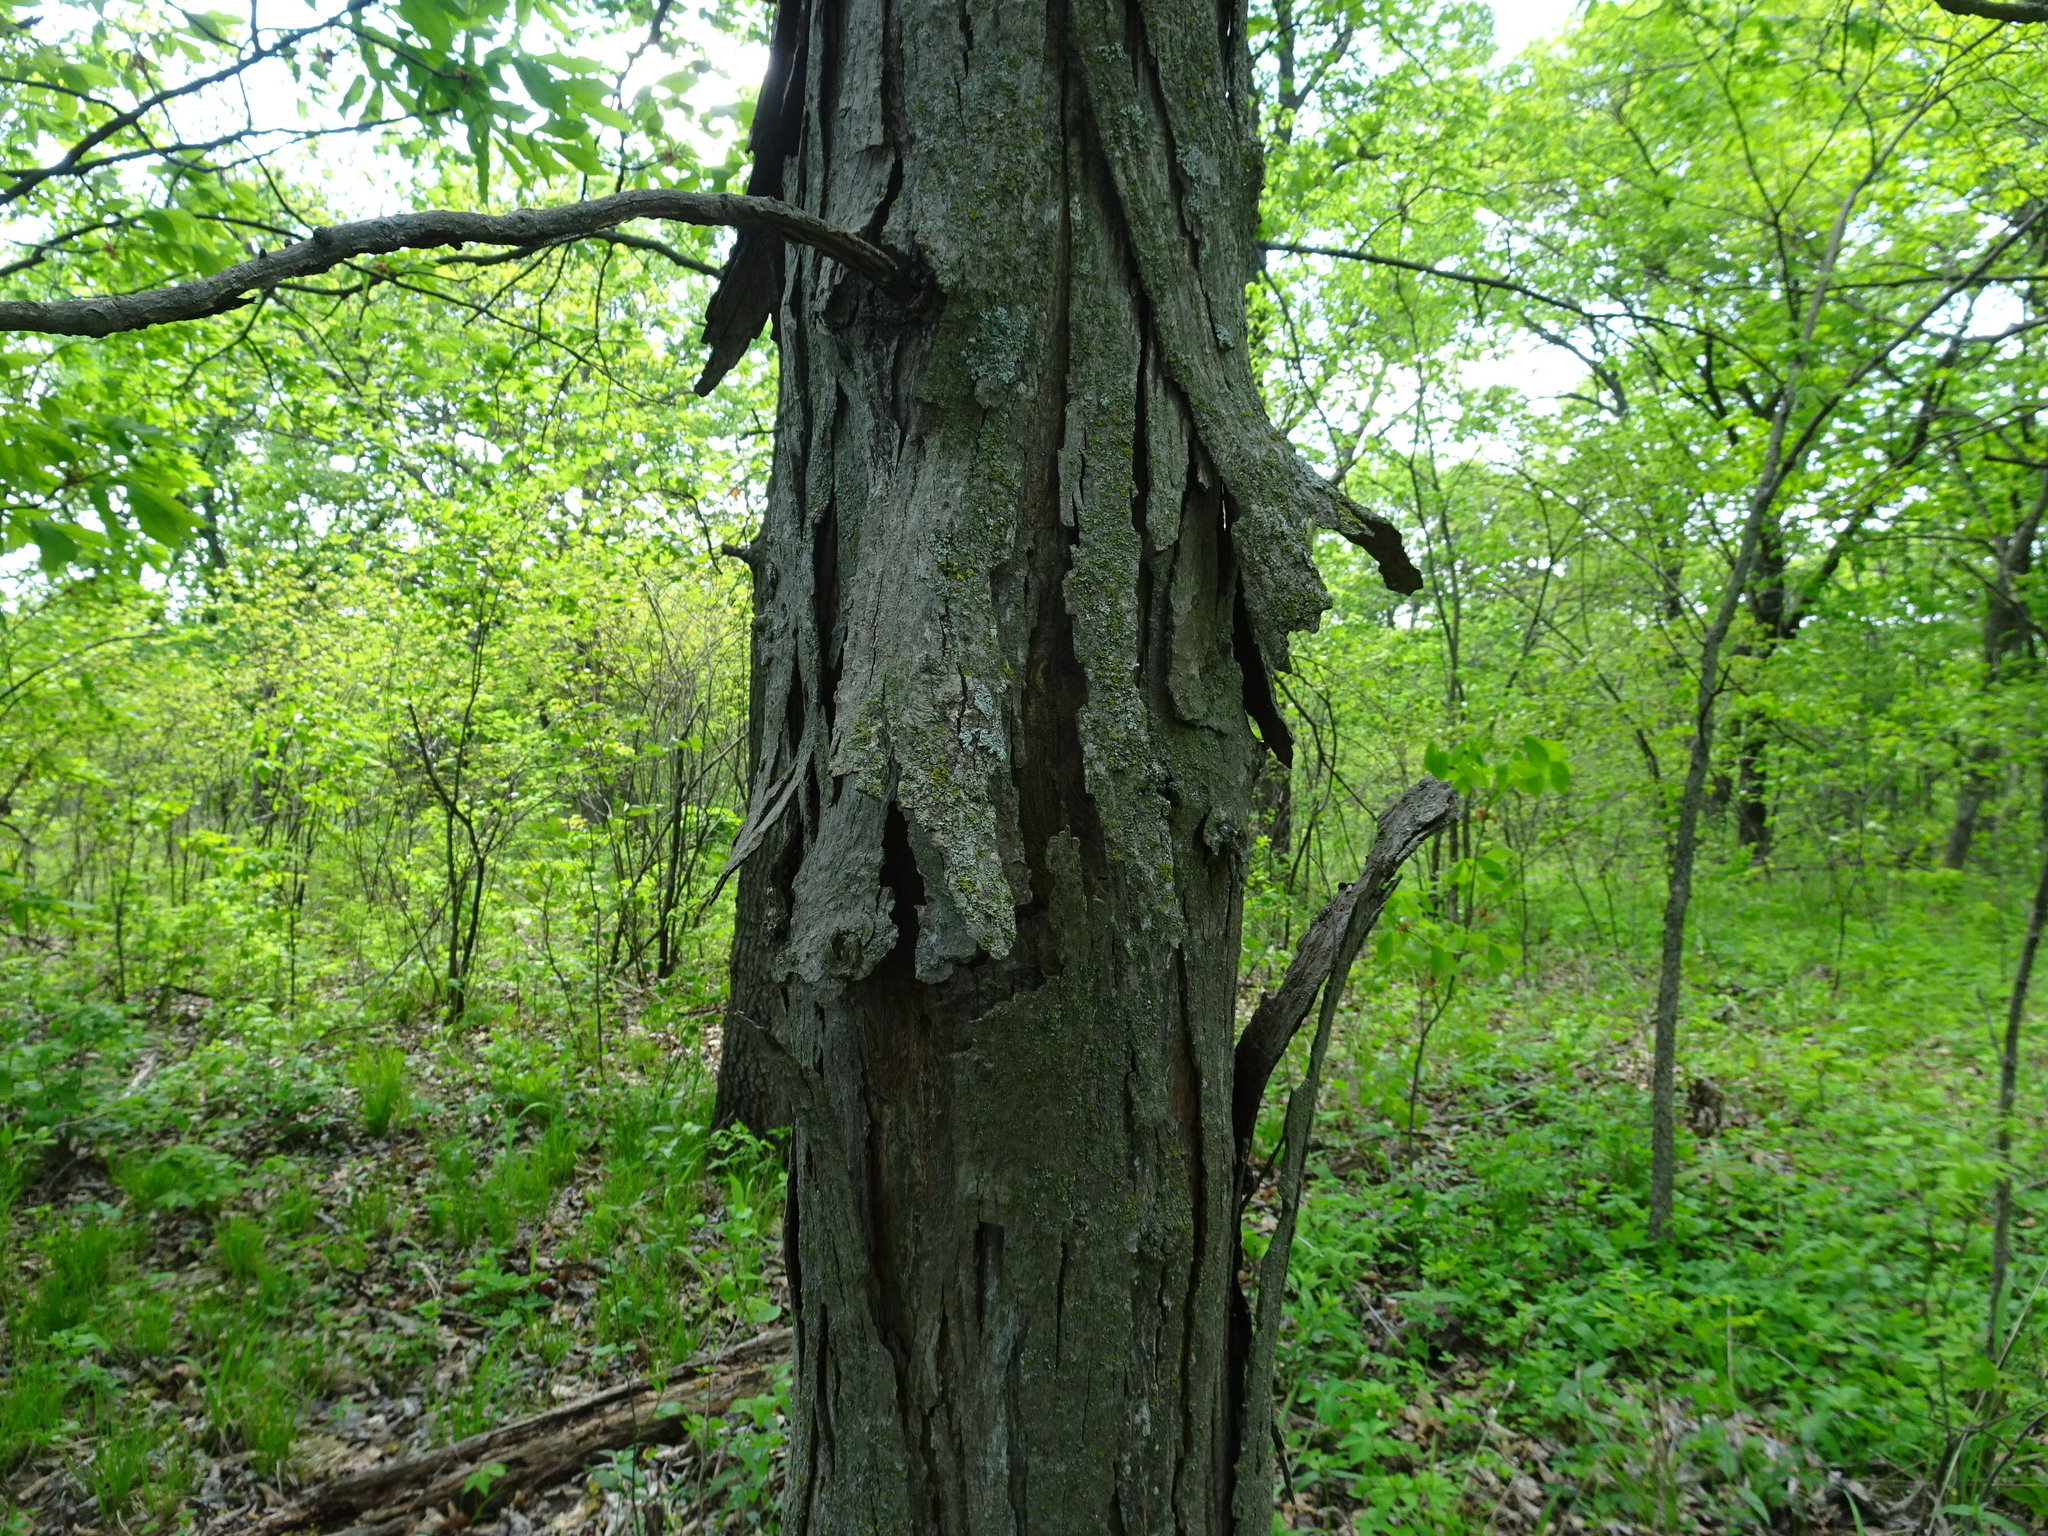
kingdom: Plantae
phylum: Tracheophyta
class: Magnoliopsida
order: Fagales
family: Juglandaceae
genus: Carya
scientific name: Carya ovata
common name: Shagbark hickory
